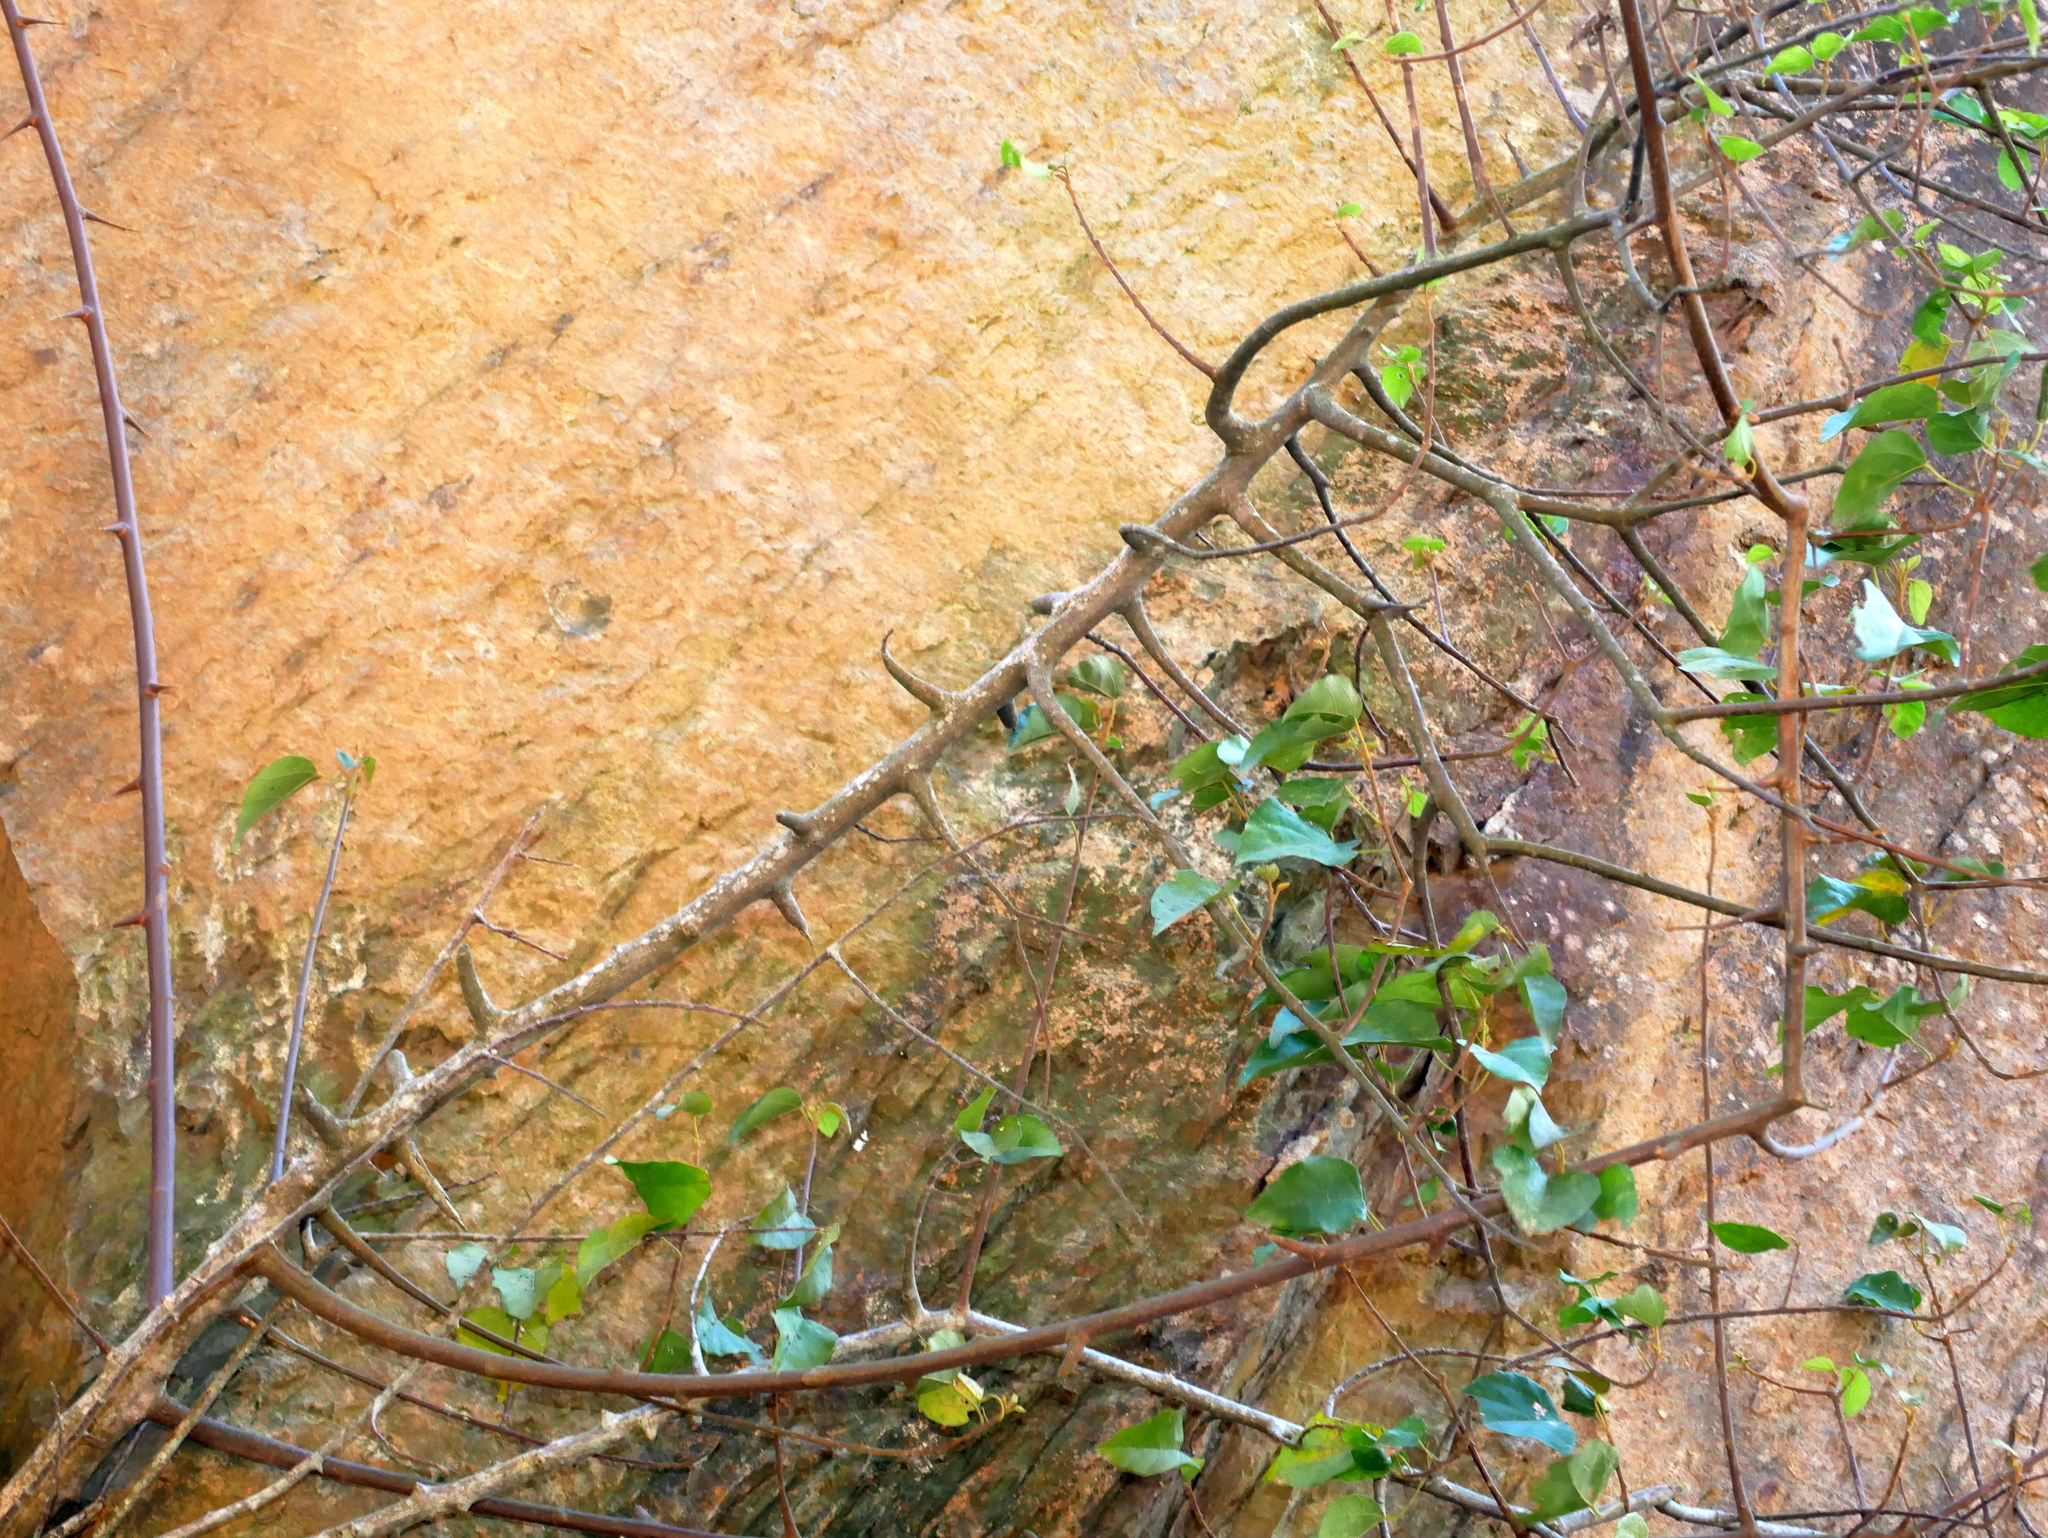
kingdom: Plantae
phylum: Tracheophyta
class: Magnoliopsida
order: Malpighiales
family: Euphorbiaceae
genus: Mallotus
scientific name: Mallotus repandus
